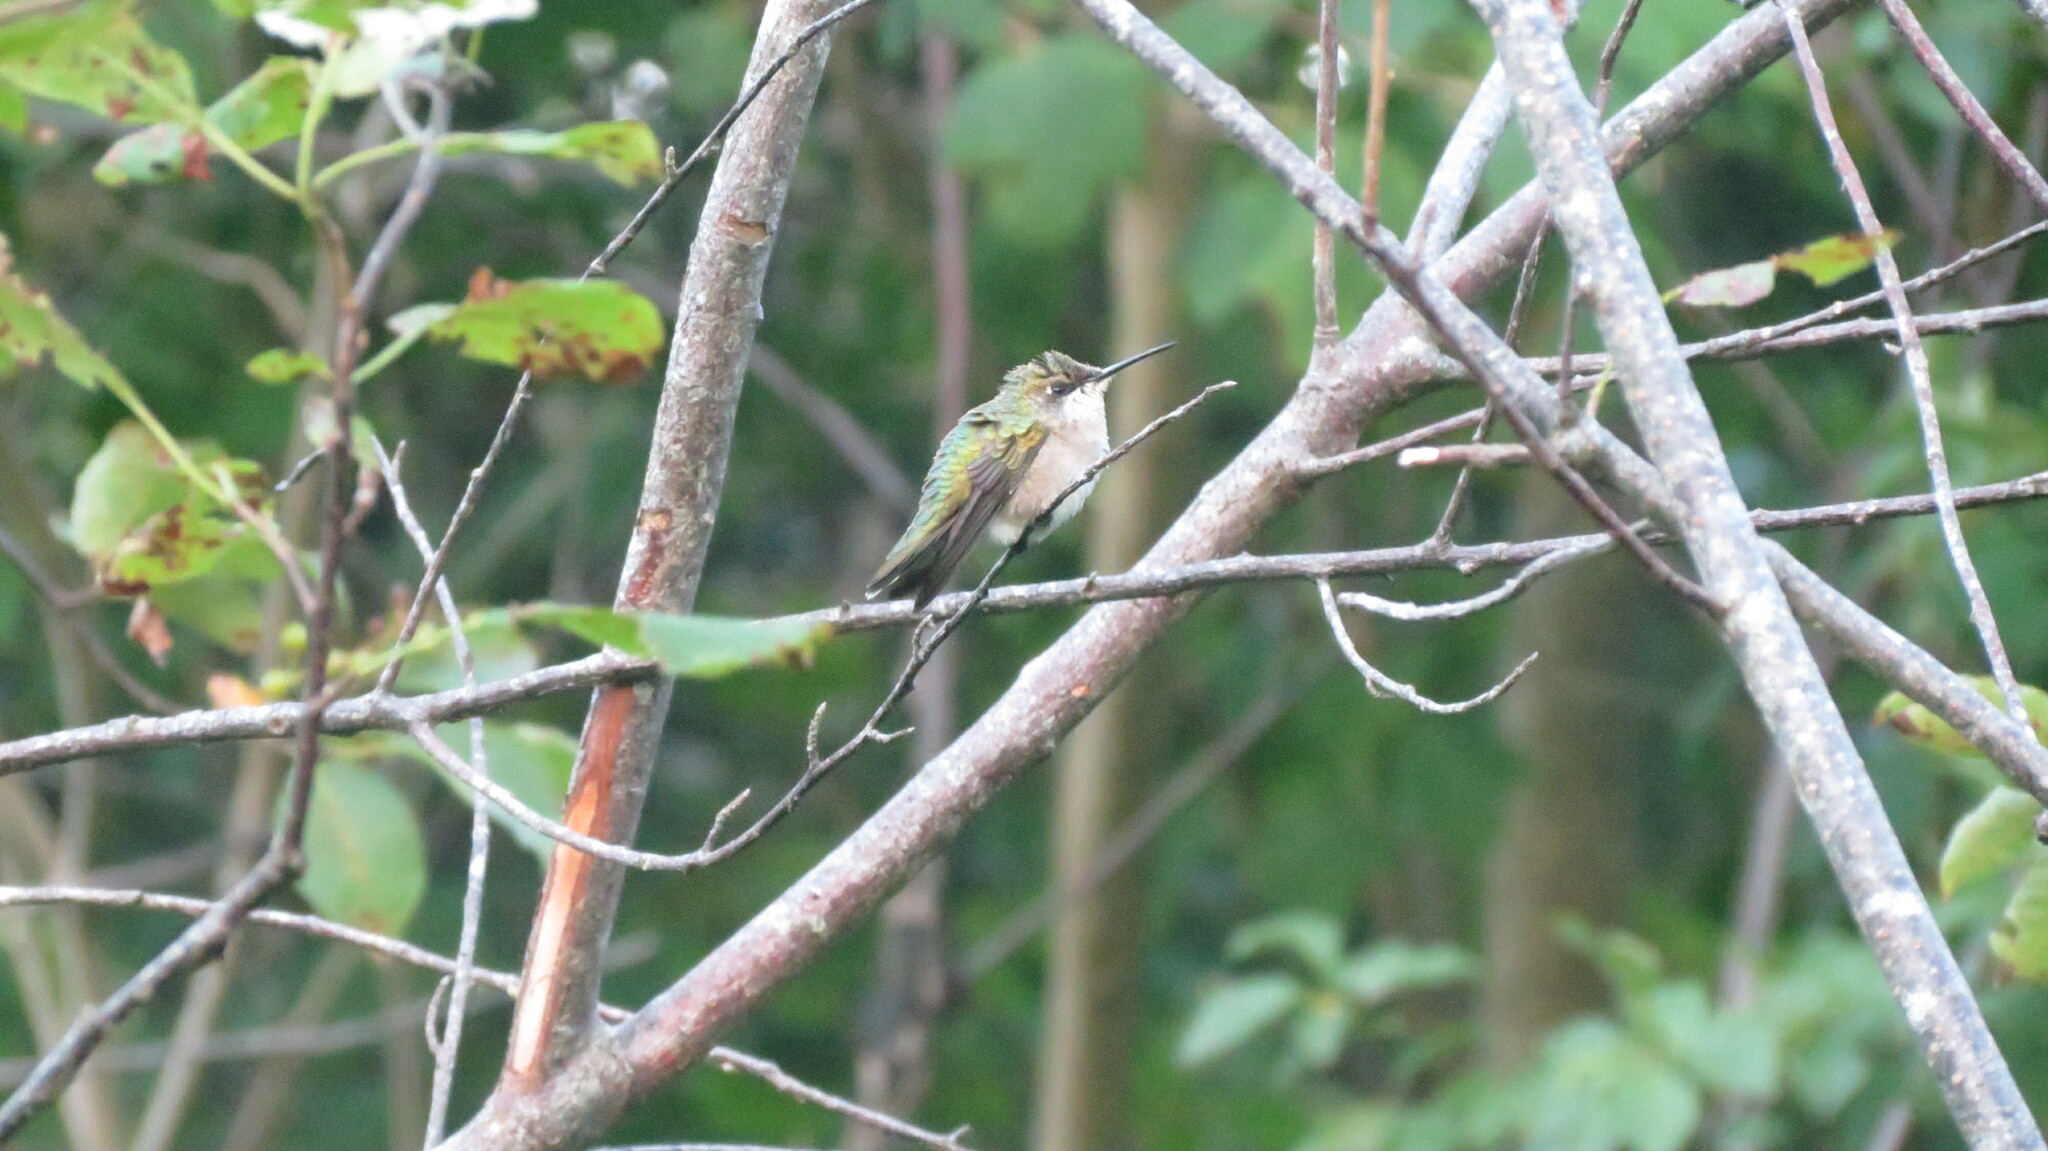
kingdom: Animalia
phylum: Chordata
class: Aves
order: Apodiformes
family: Trochilidae
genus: Archilochus
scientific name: Archilochus colubris
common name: Ruby-throated hummingbird
